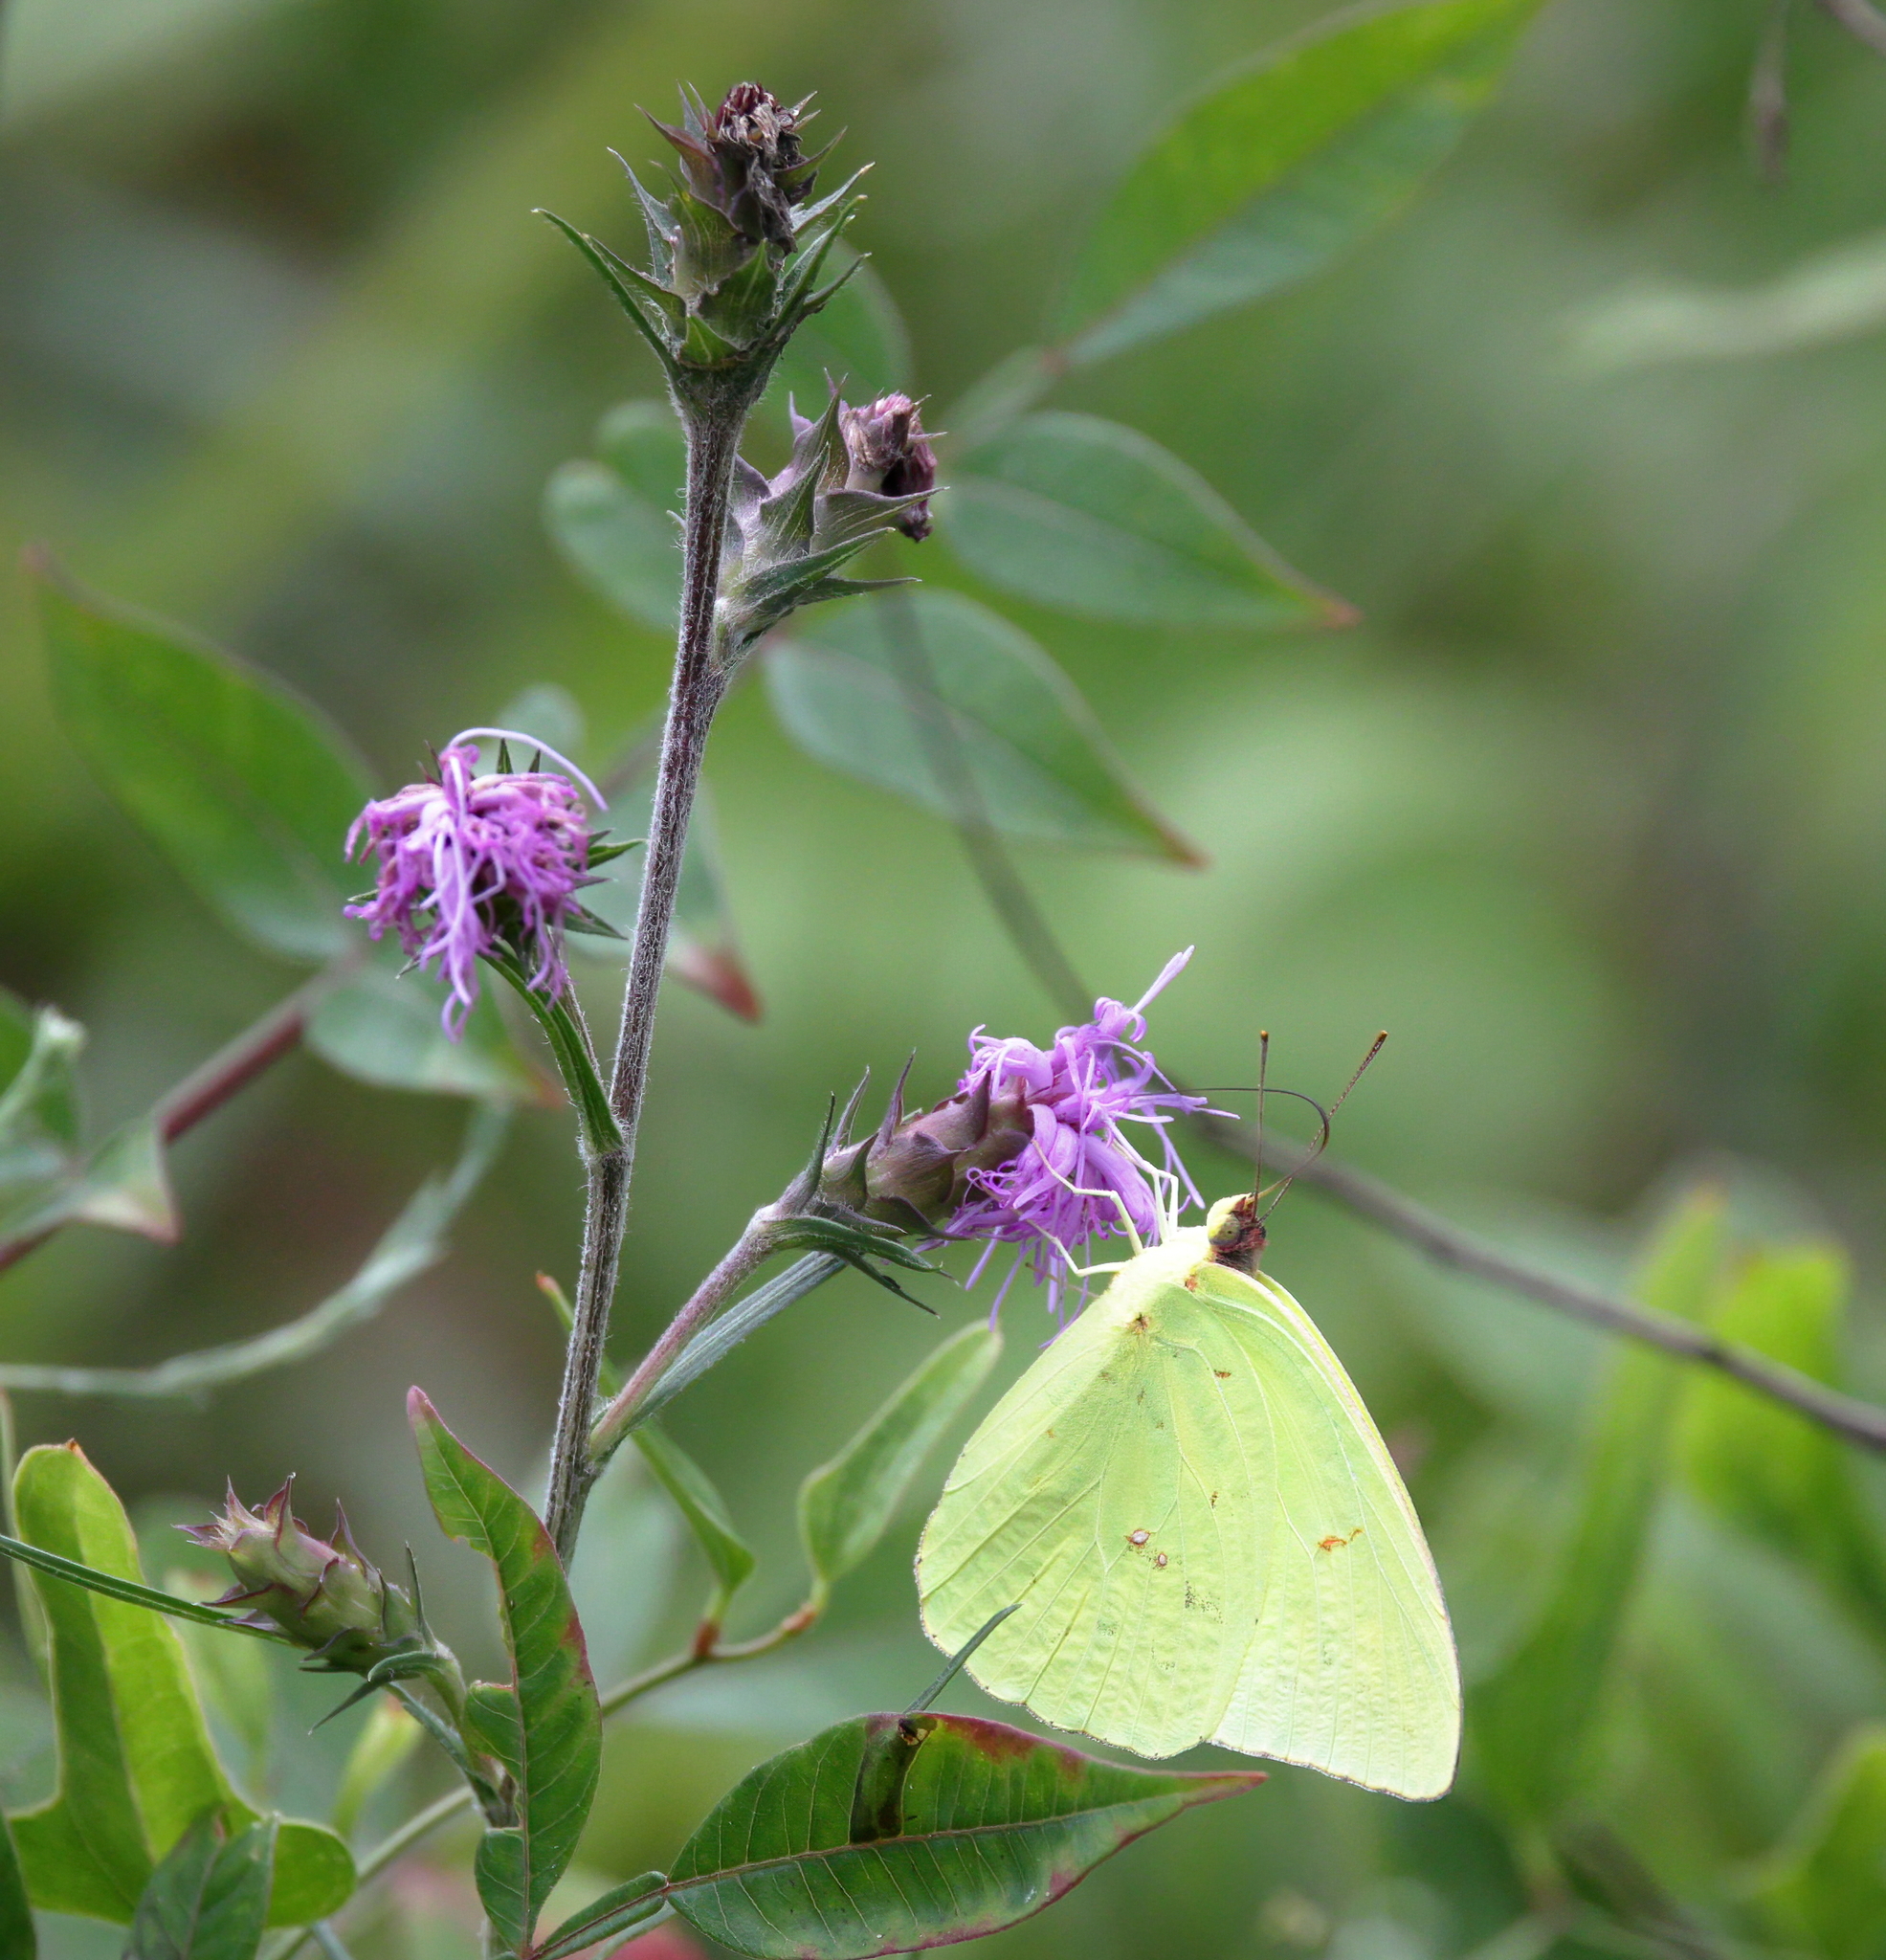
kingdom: Animalia
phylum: Arthropoda
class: Insecta
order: Lepidoptera
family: Pieridae
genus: Phoebis
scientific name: Phoebis sennae
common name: Cloudless sulphur
